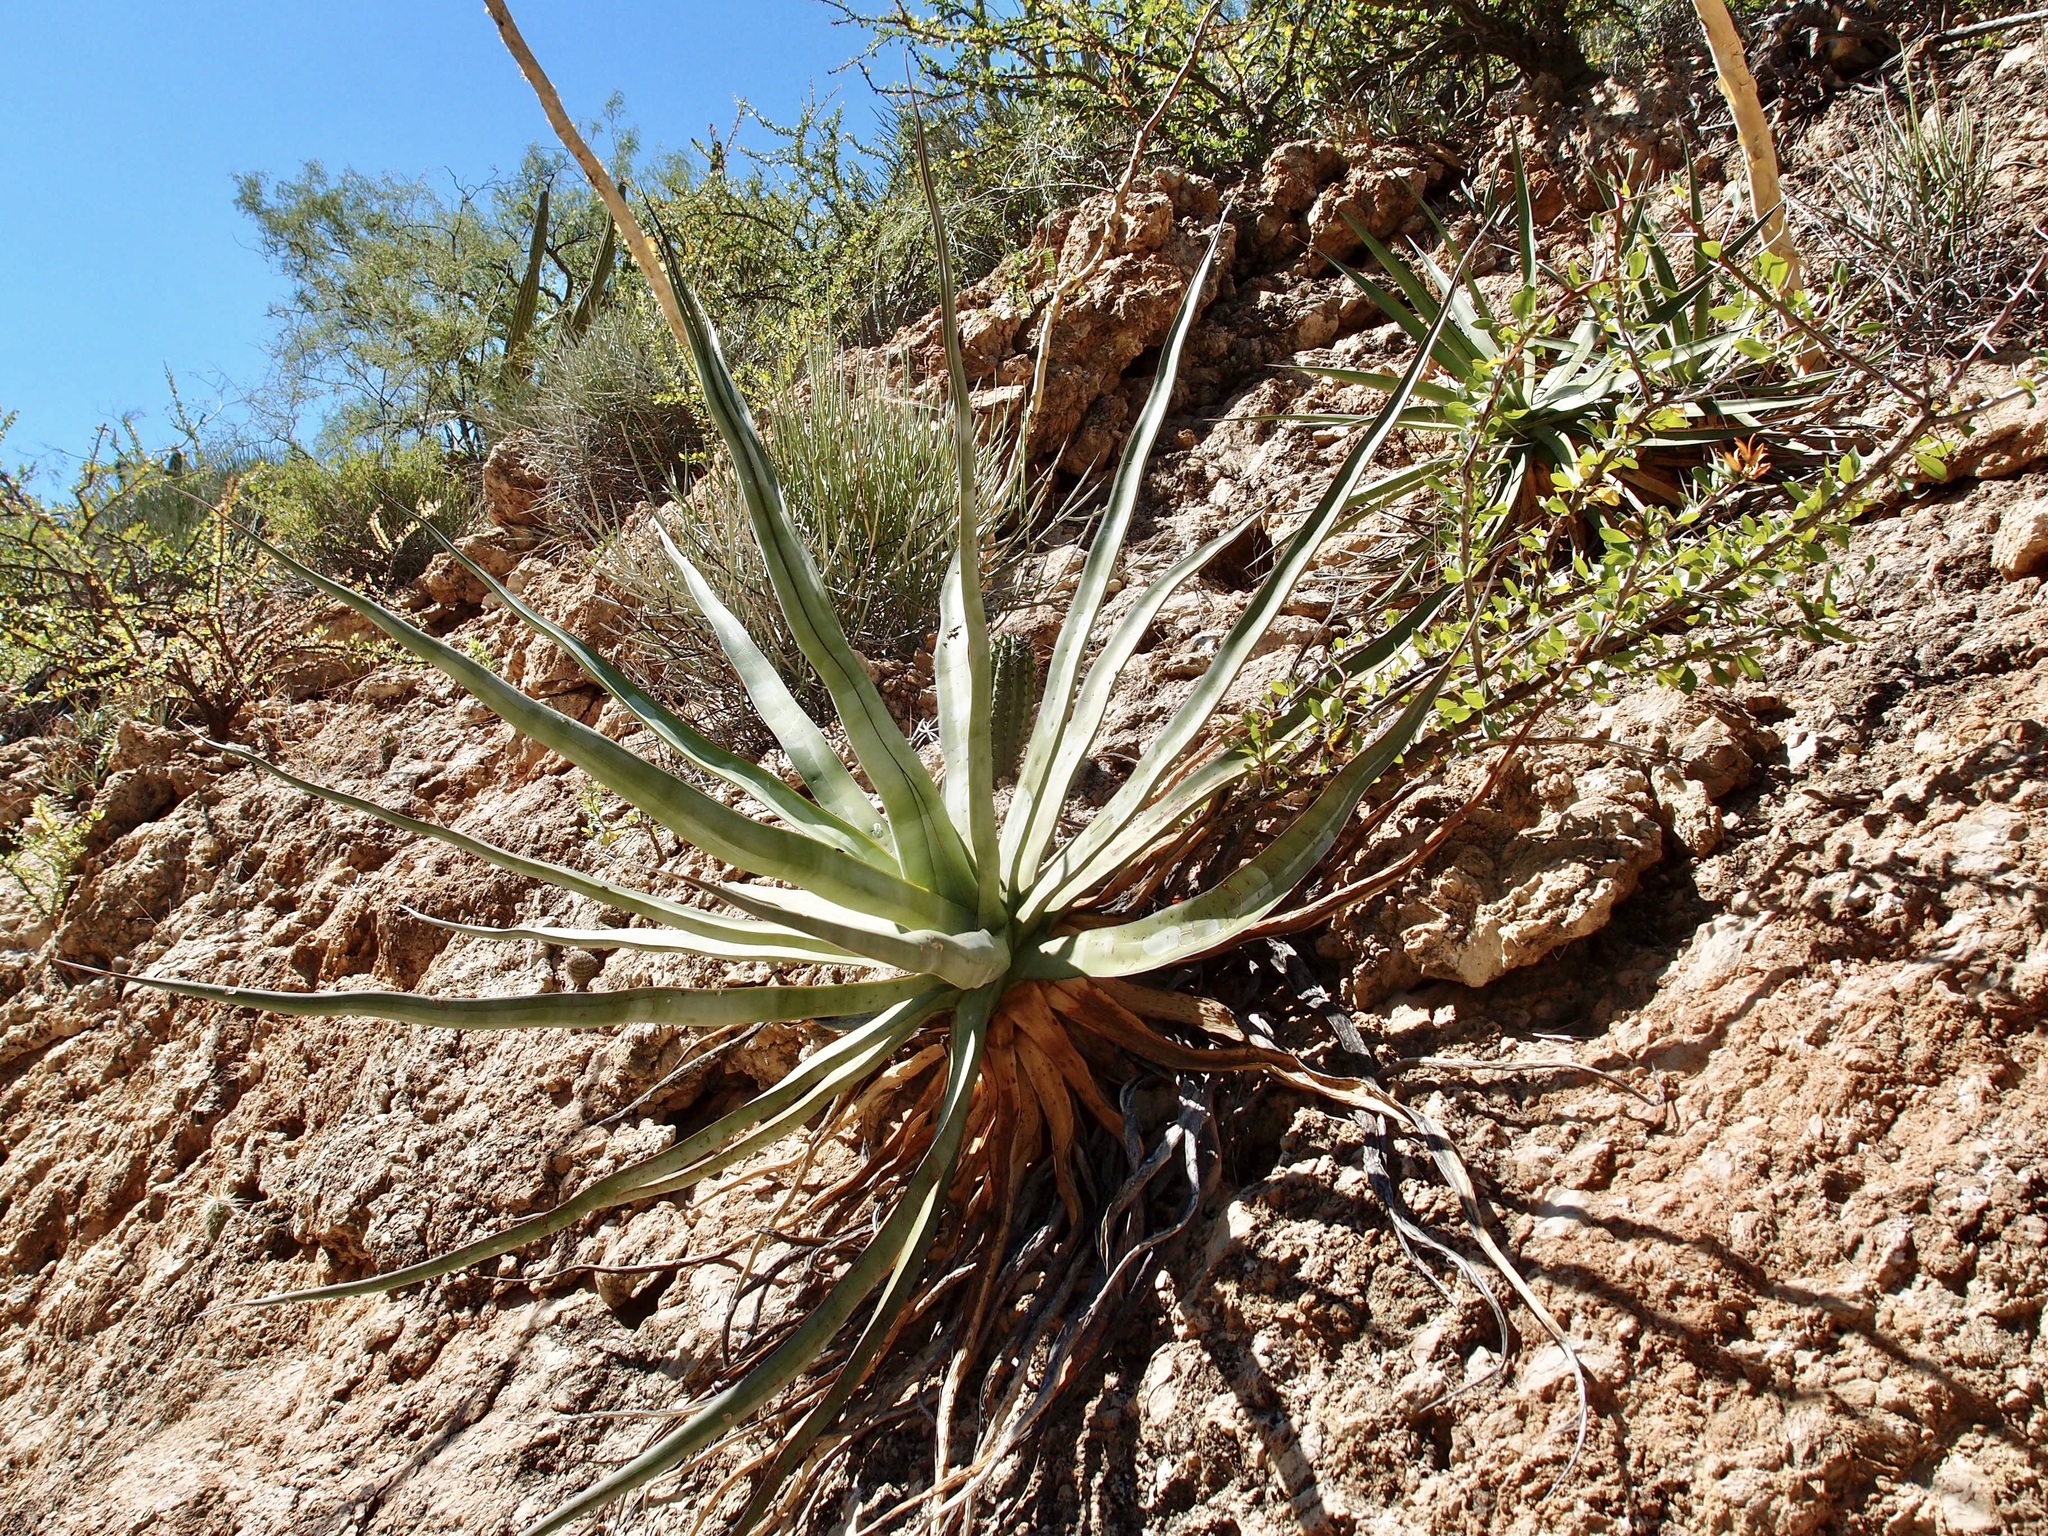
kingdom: Plantae
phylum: Tracheophyta
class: Liliopsida
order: Asparagales
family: Asparagaceae
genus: Agave
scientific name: Agave chrysoglossa
